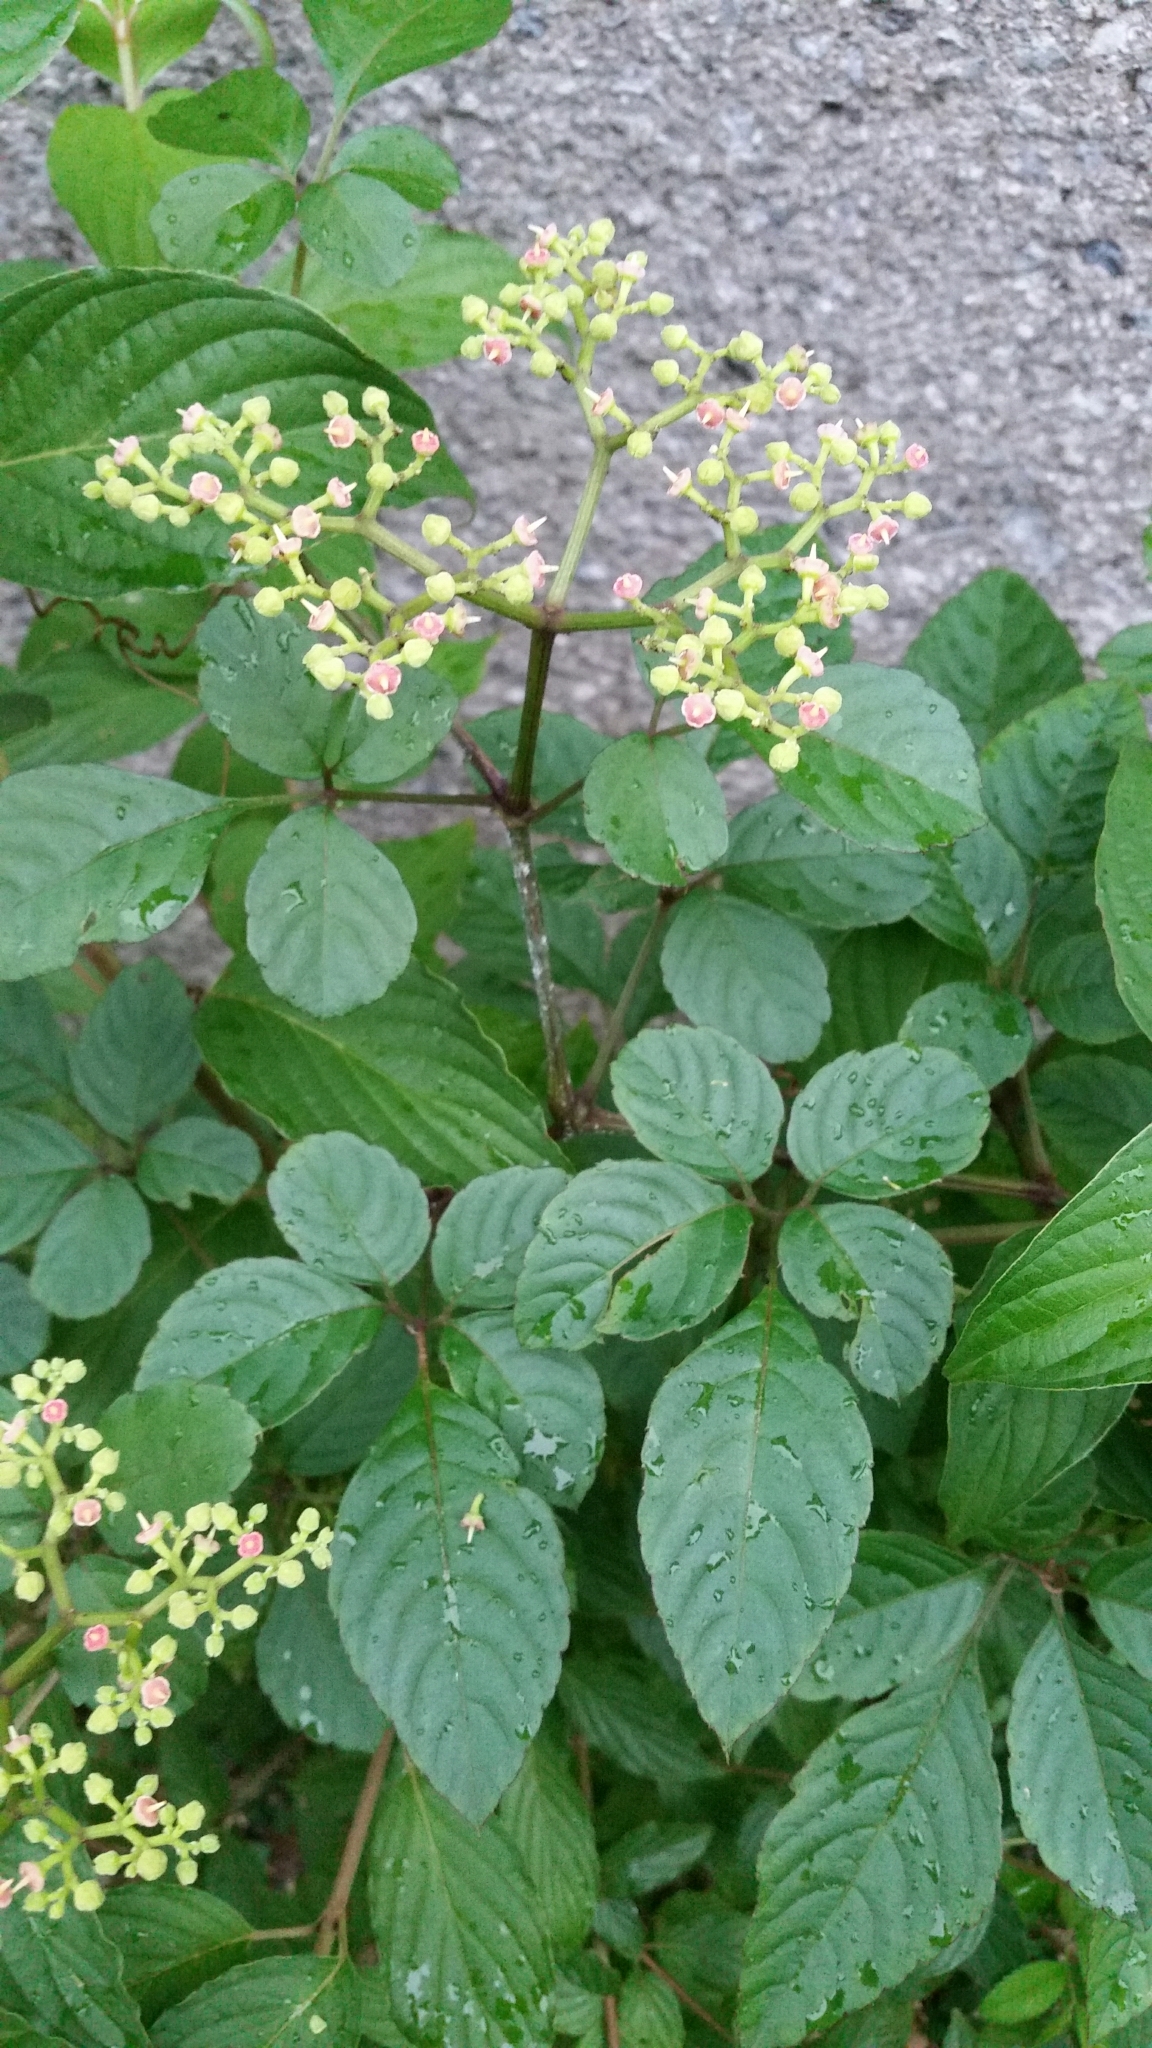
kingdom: Plantae
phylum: Tracheophyta
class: Magnoliopsida
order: Vitales
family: Vitaceae
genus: Causonis
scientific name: Causonis japonica
